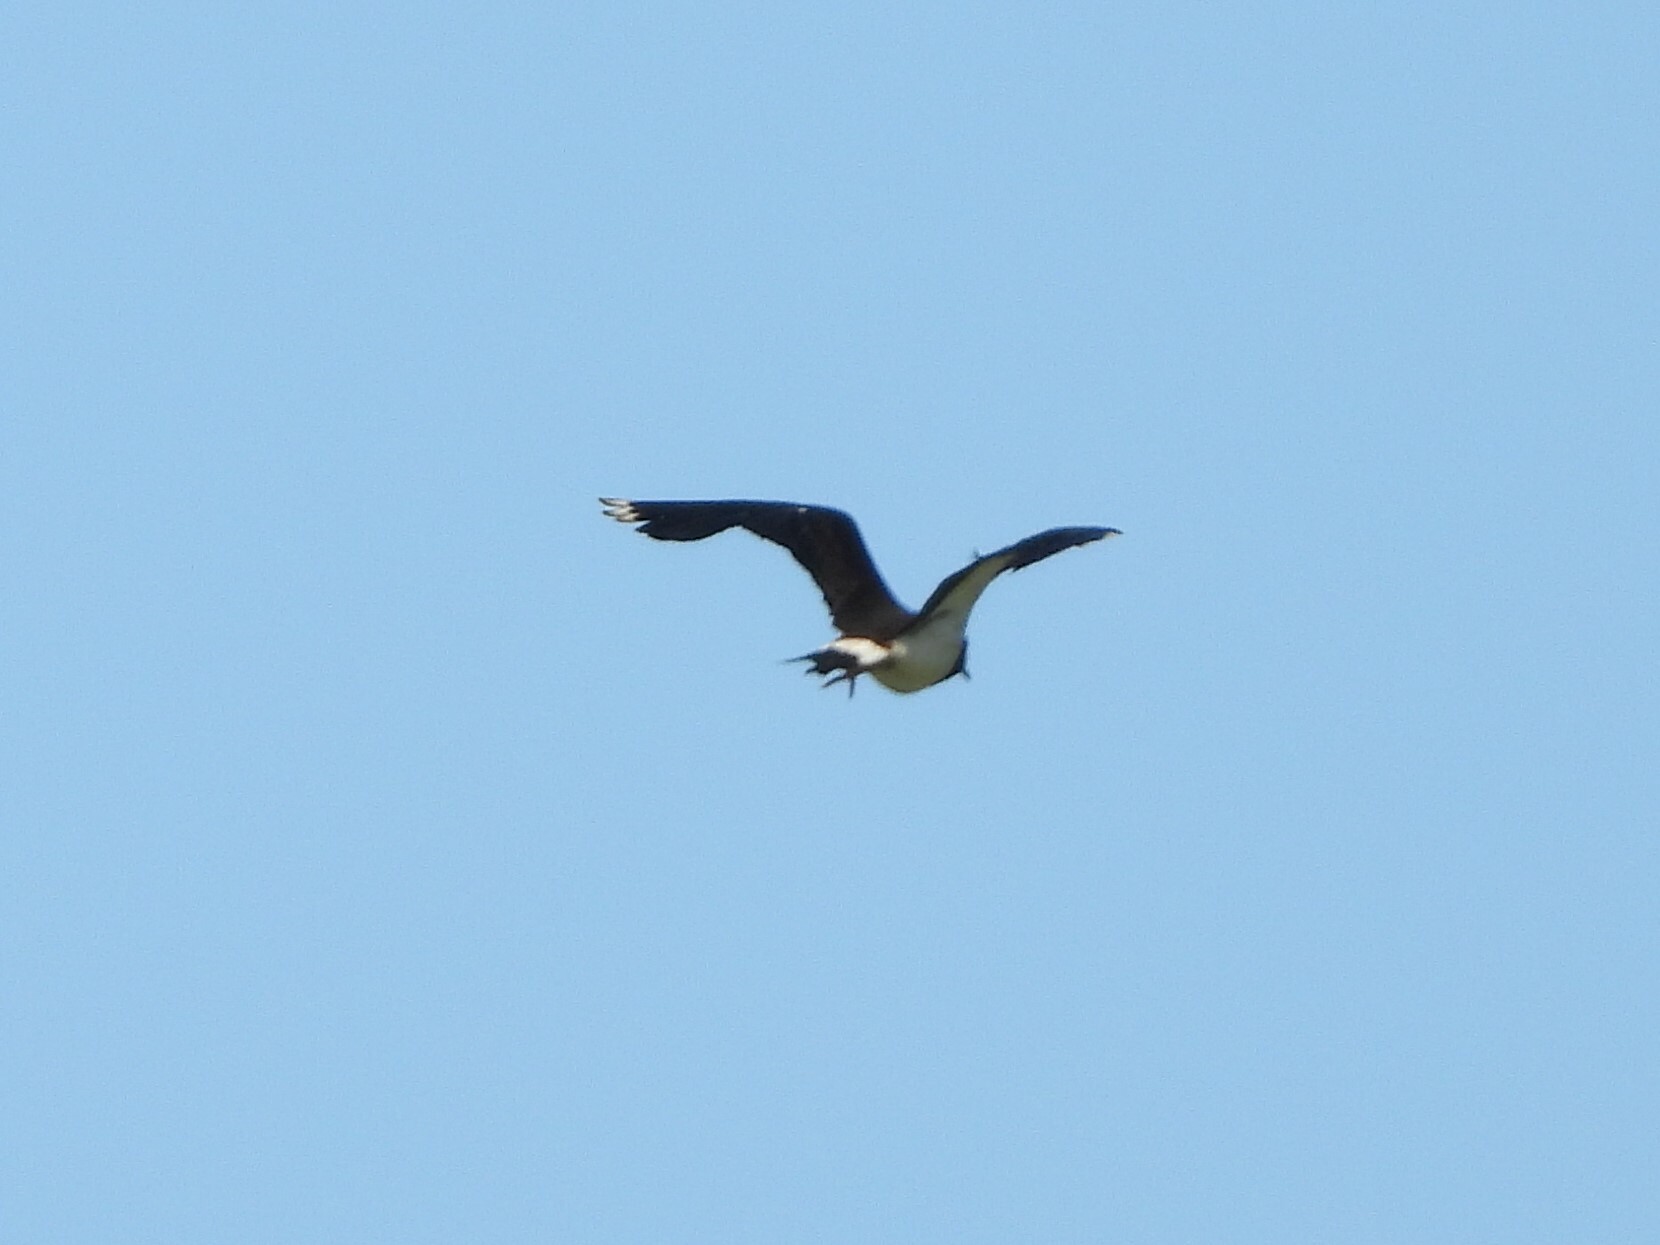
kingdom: Animalia
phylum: Chordata
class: Aves
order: Charadriiformes
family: Charadriidae
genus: Vanellus
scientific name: Vanellus vanellus
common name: Northern lapwing
